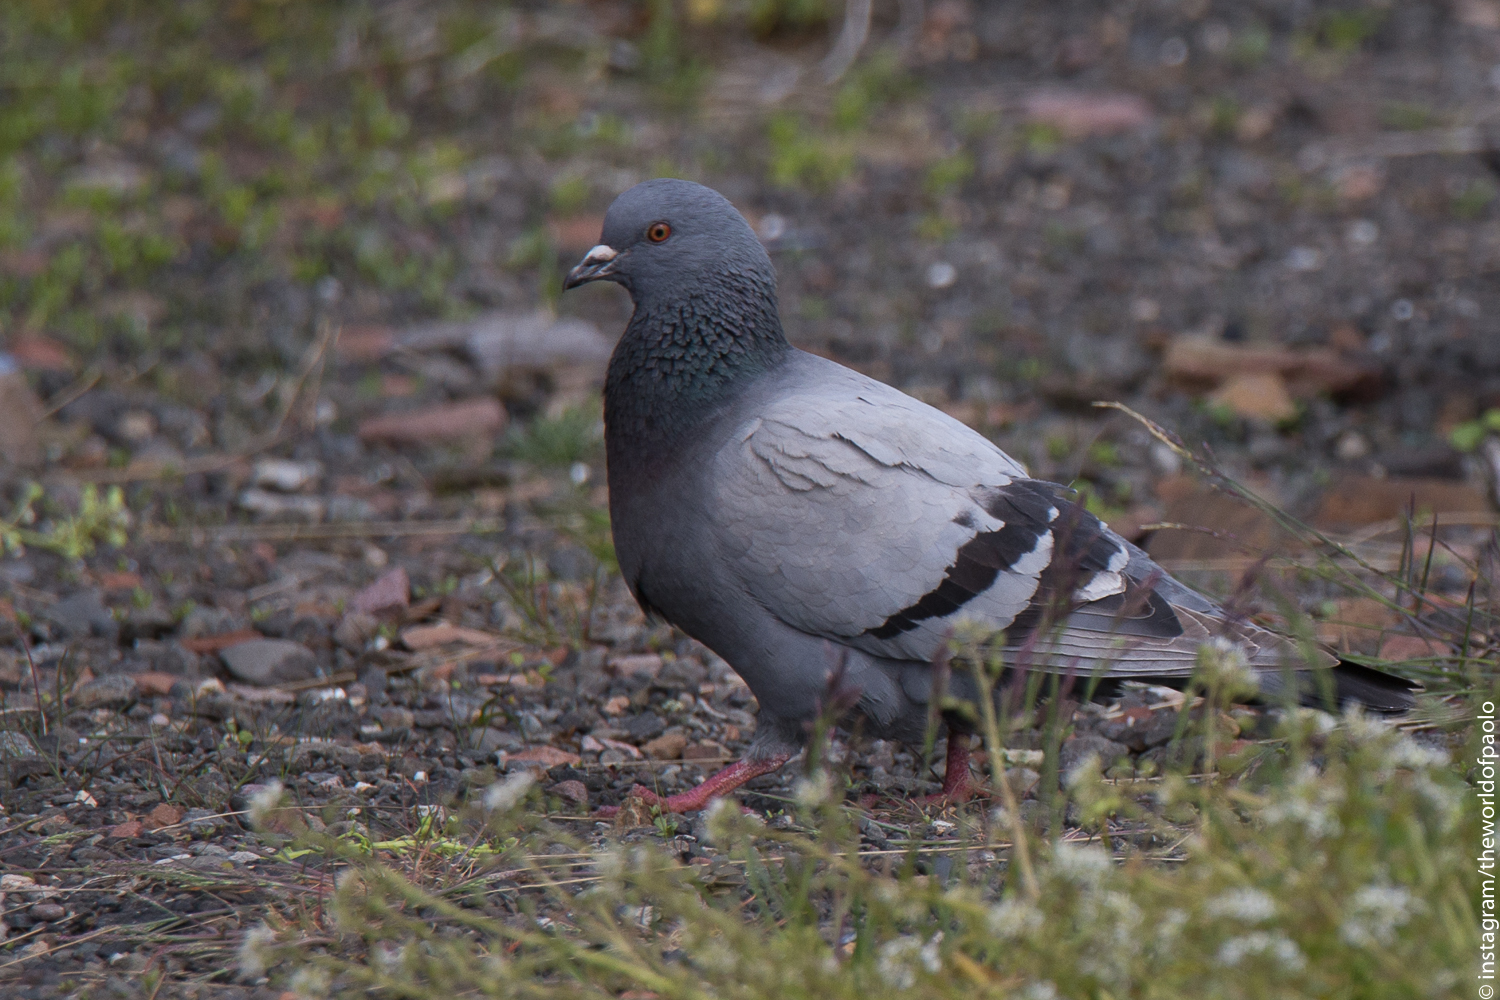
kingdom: Animalia
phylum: Chordata
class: Aves
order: Columbiformes
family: Columbidae
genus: Columba
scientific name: Columba livia
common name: Rock pigeon
